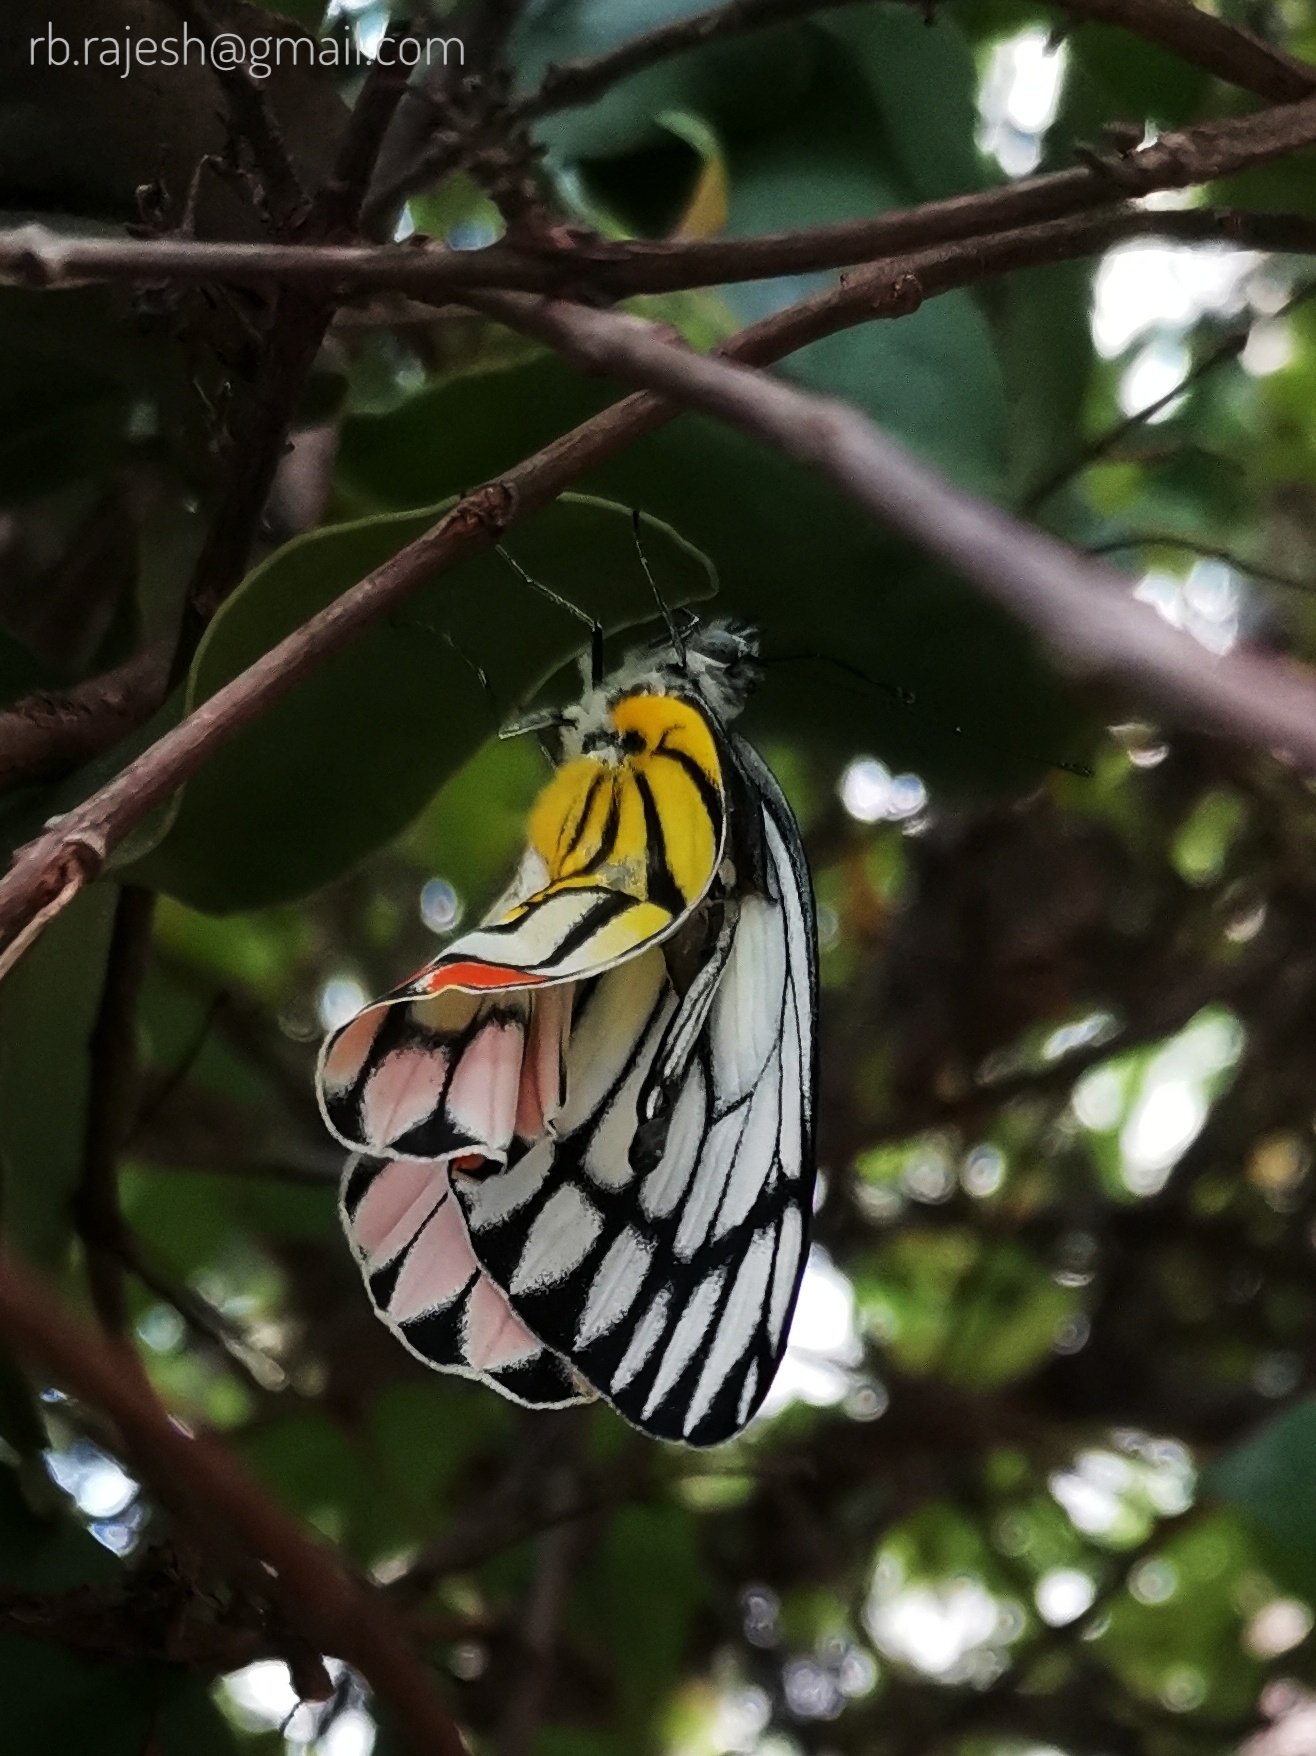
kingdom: Animalia
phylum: Arthropoda
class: Insecta
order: Lepidoptera
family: Pieridae
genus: Delias
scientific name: Delias eucharis
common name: Common jezebel
